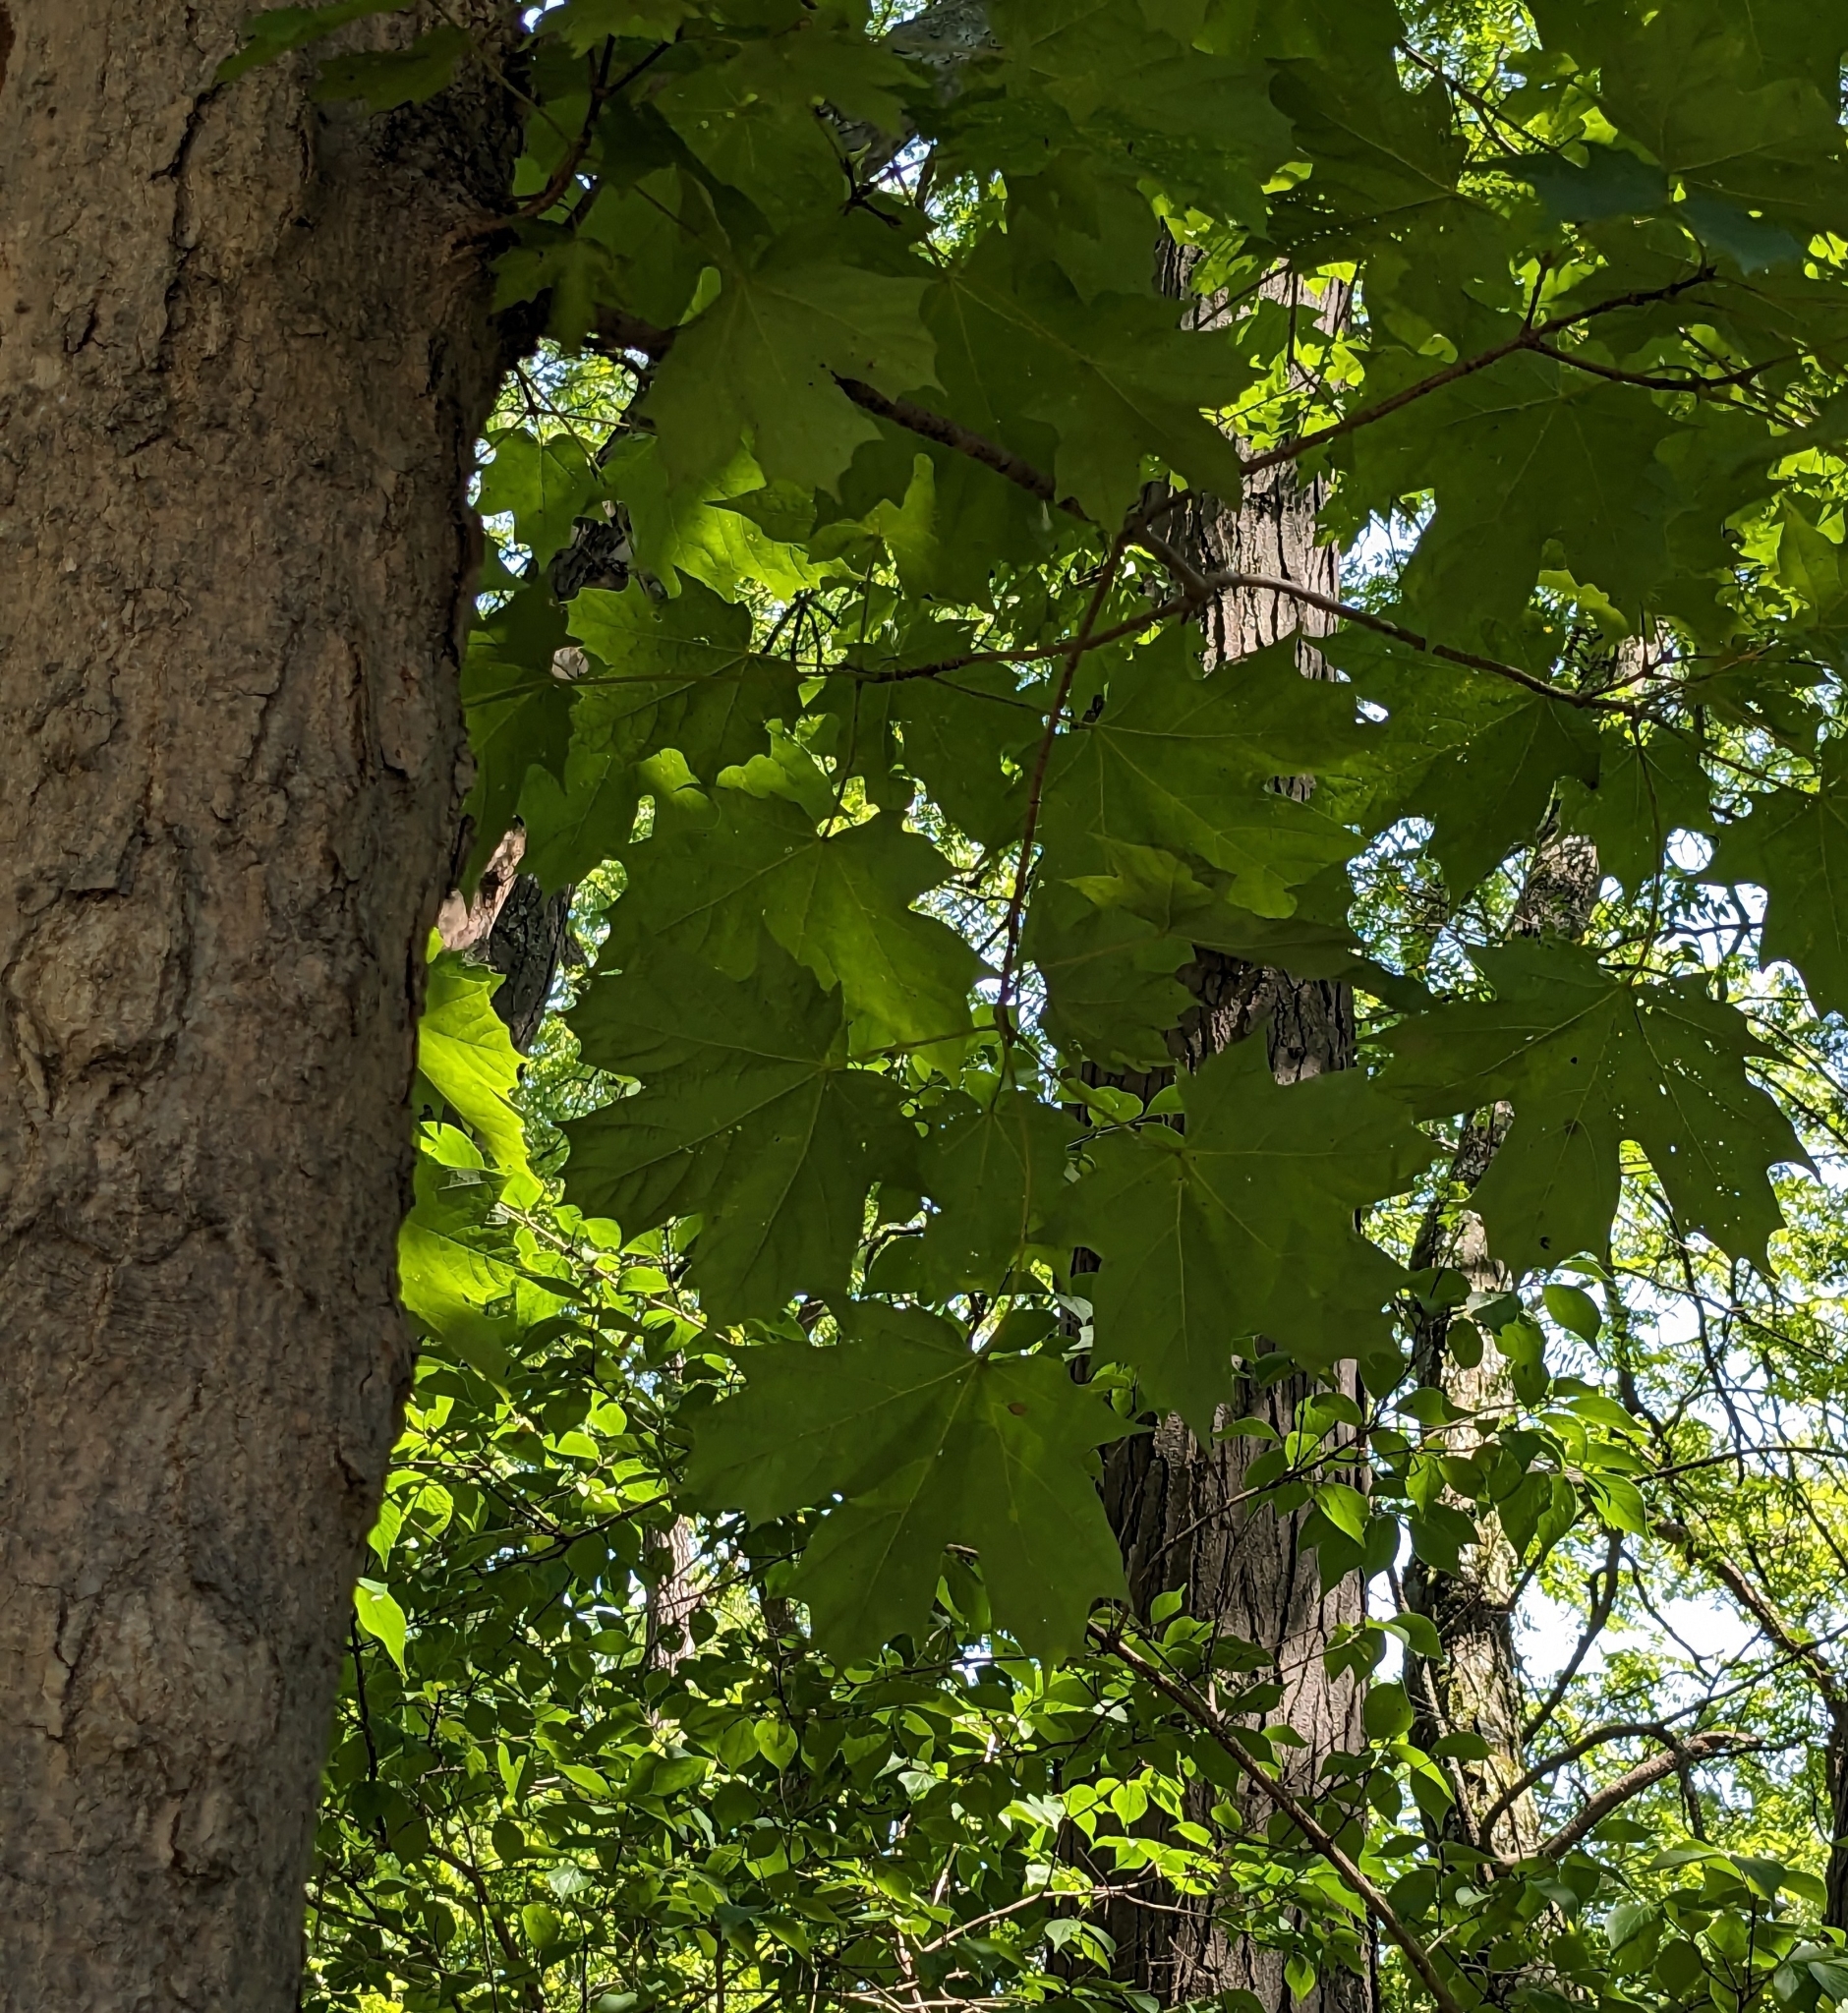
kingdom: Plantae
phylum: Tracheophyta
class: Magnoliopsida
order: Sapindales
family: Sapindaceae
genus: Acer
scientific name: Acer saccharum
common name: Sugar maple
